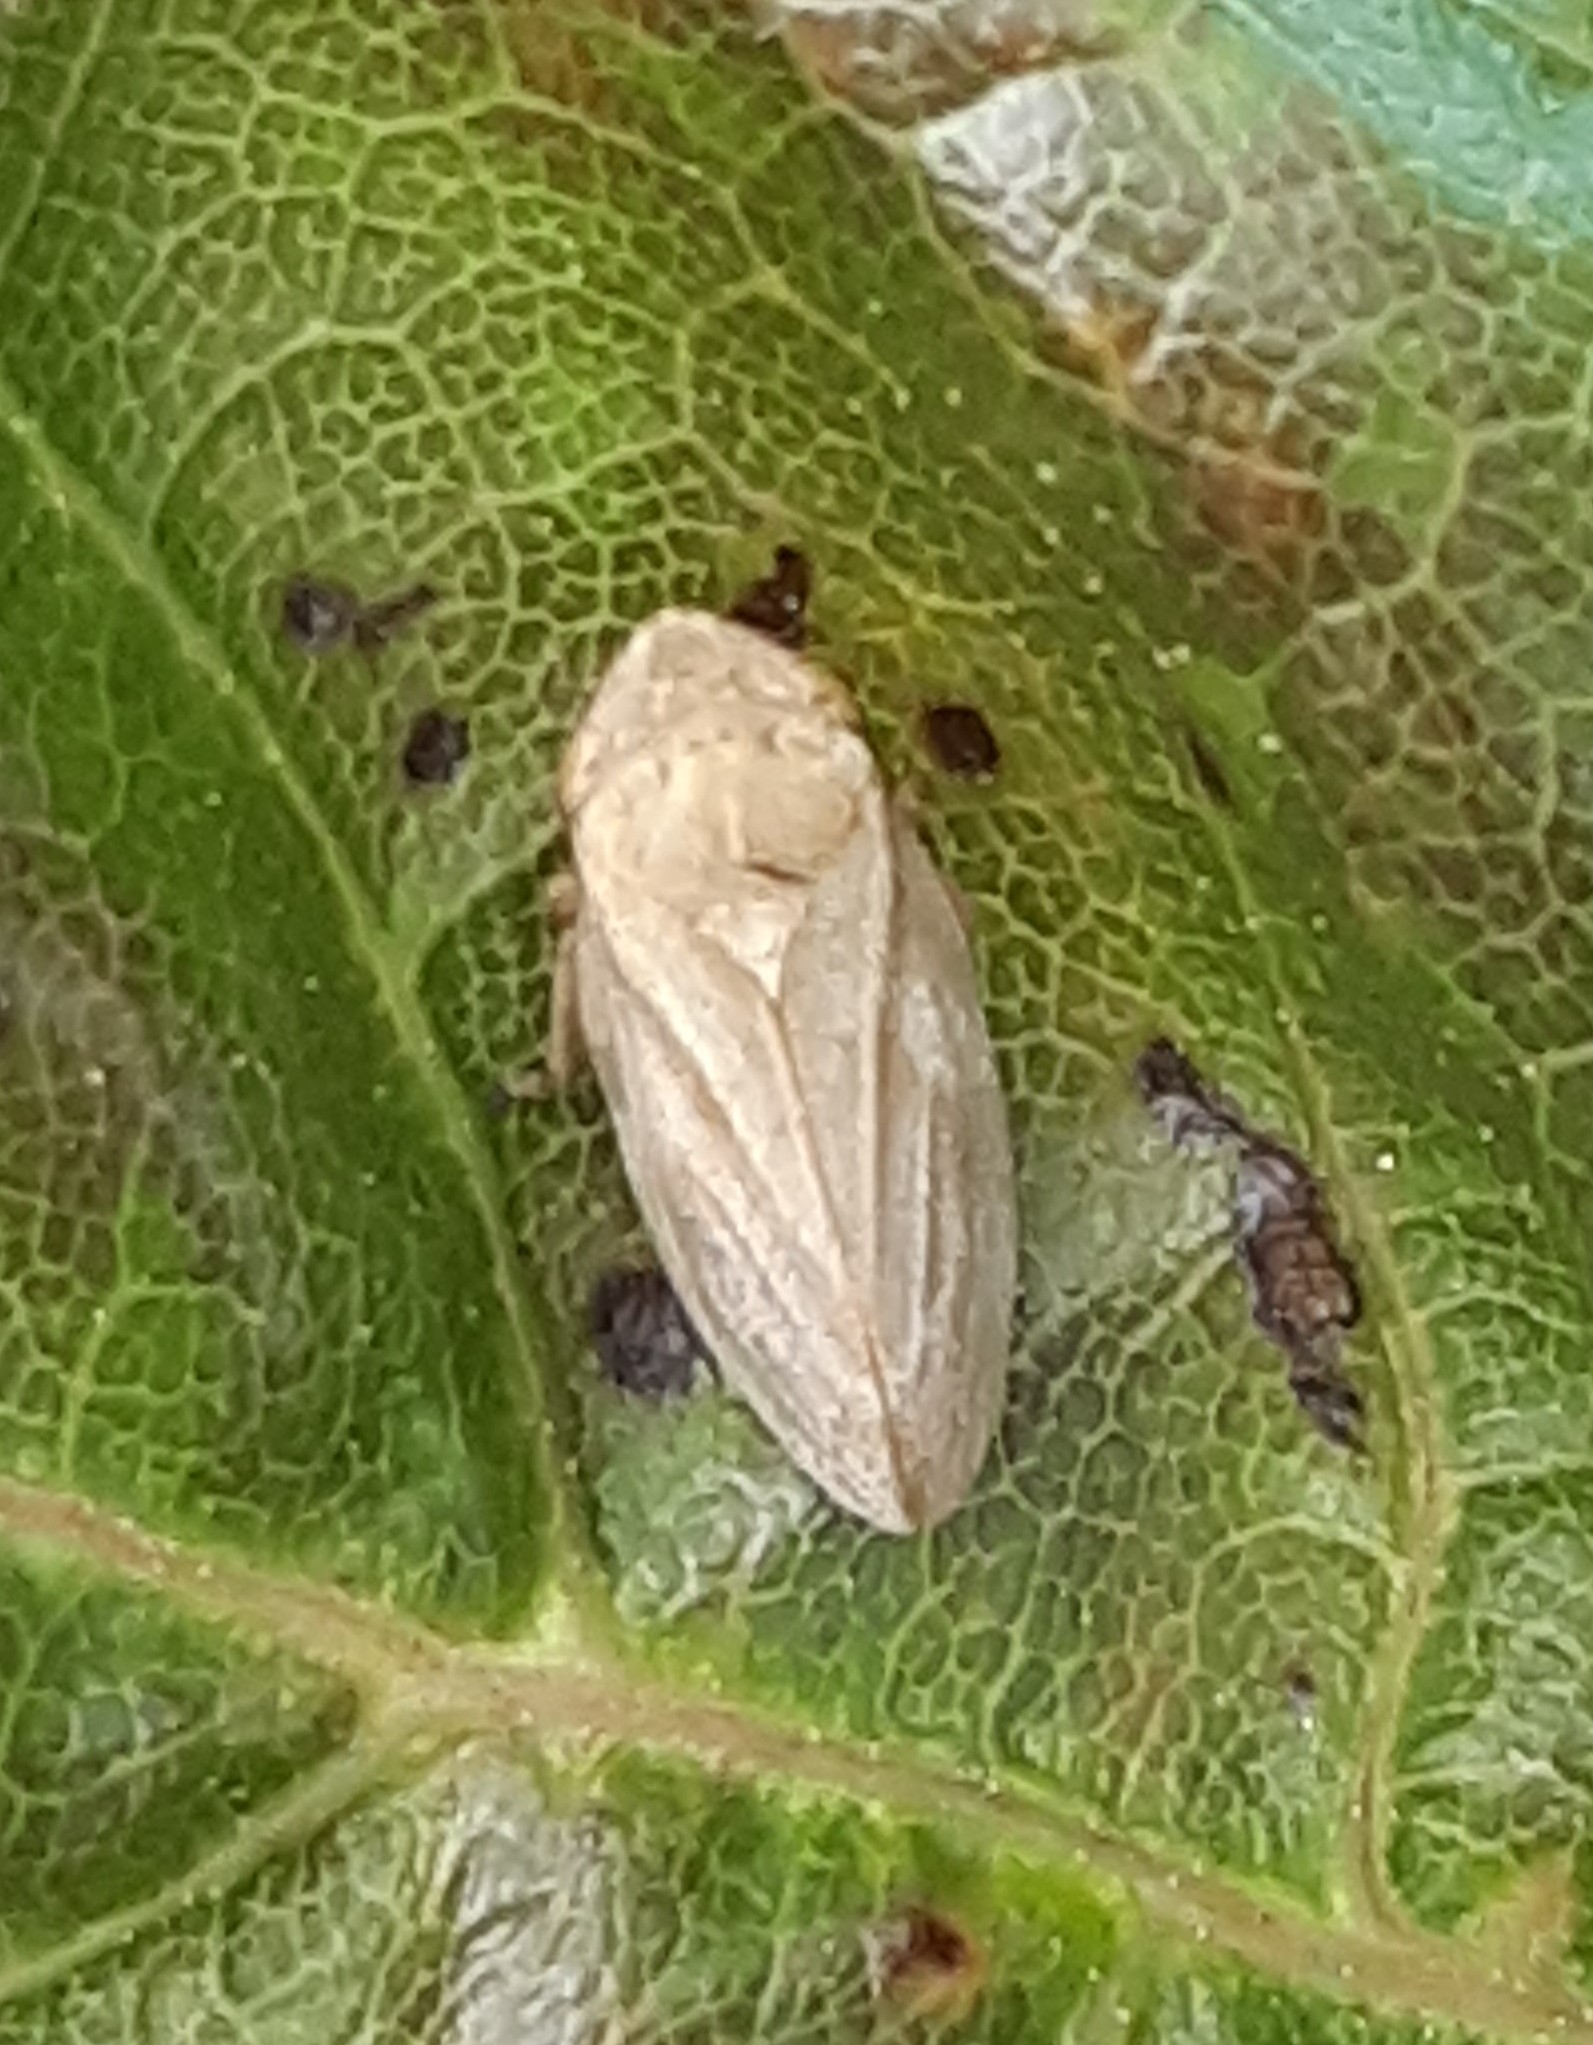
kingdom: Animalia
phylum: Arthropoda
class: Insecta
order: Hemiptera
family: Aphrophoridae
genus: Philaenus
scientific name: Philaenus spumarius
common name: Meadow spittlebug
